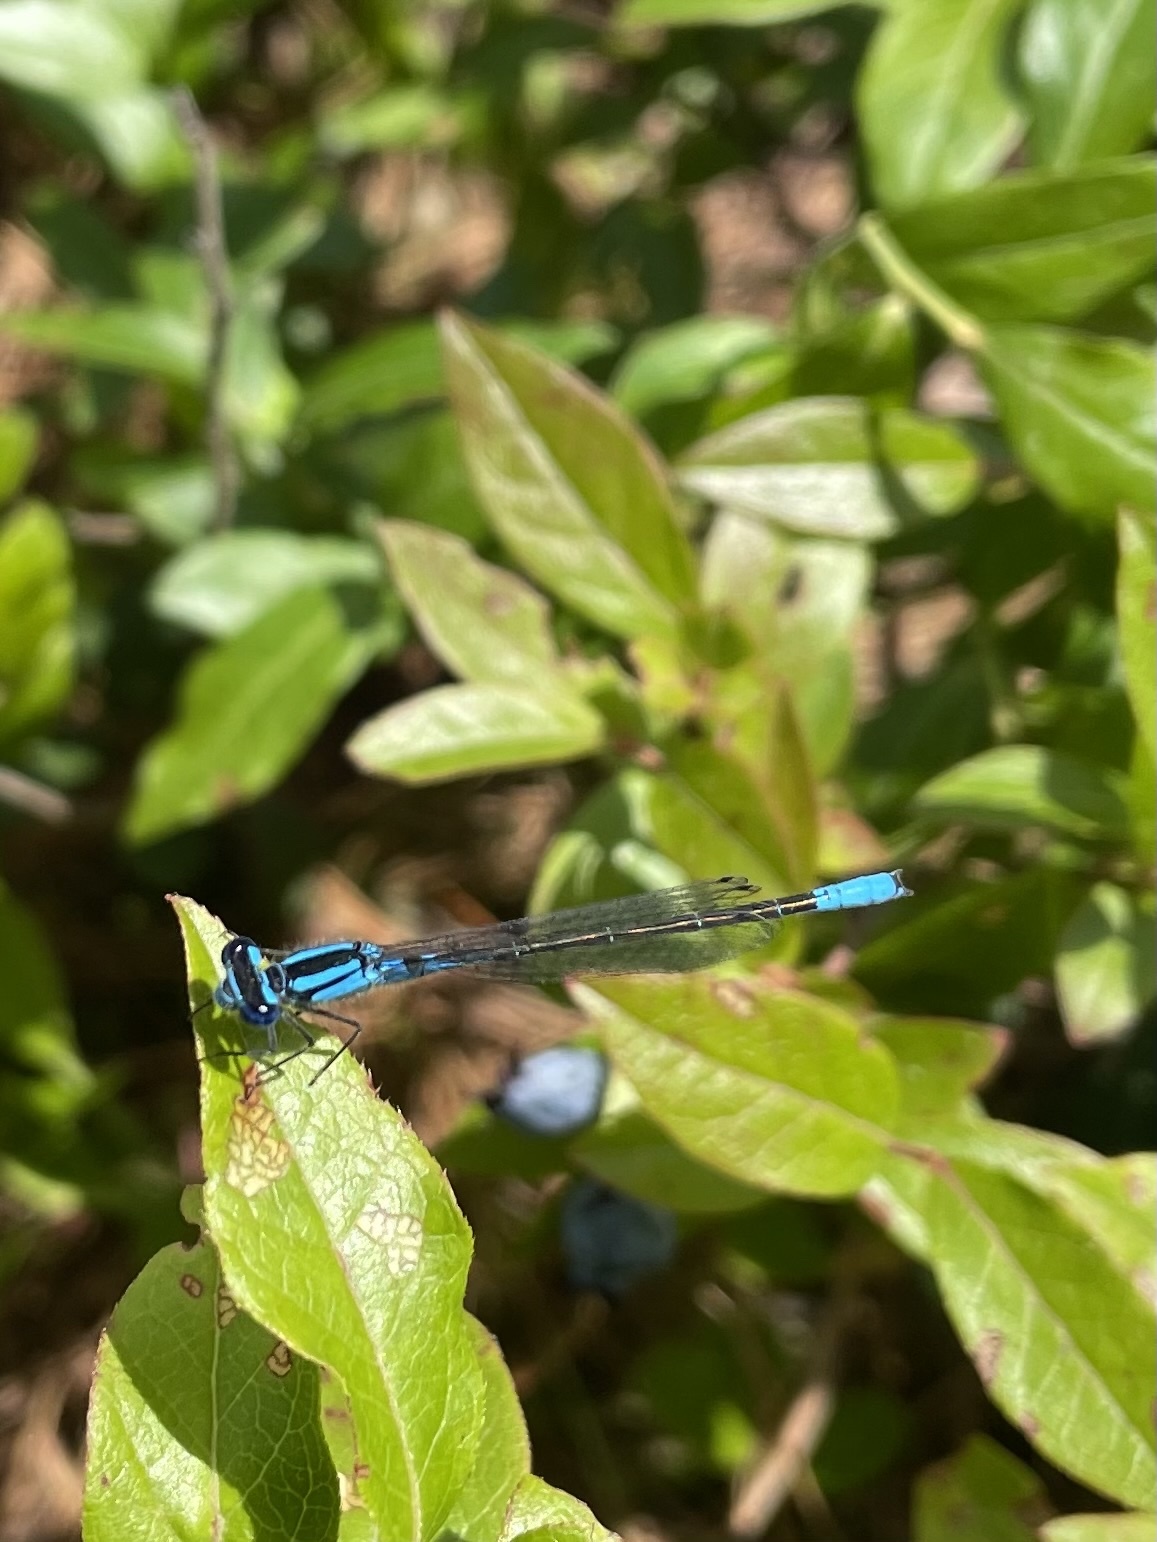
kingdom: Animalia
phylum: Arthropoda
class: Insecta
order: Odonata
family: Coenagrionidae
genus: Enallagma
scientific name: Enallagma aspersum
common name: Azure bluet
